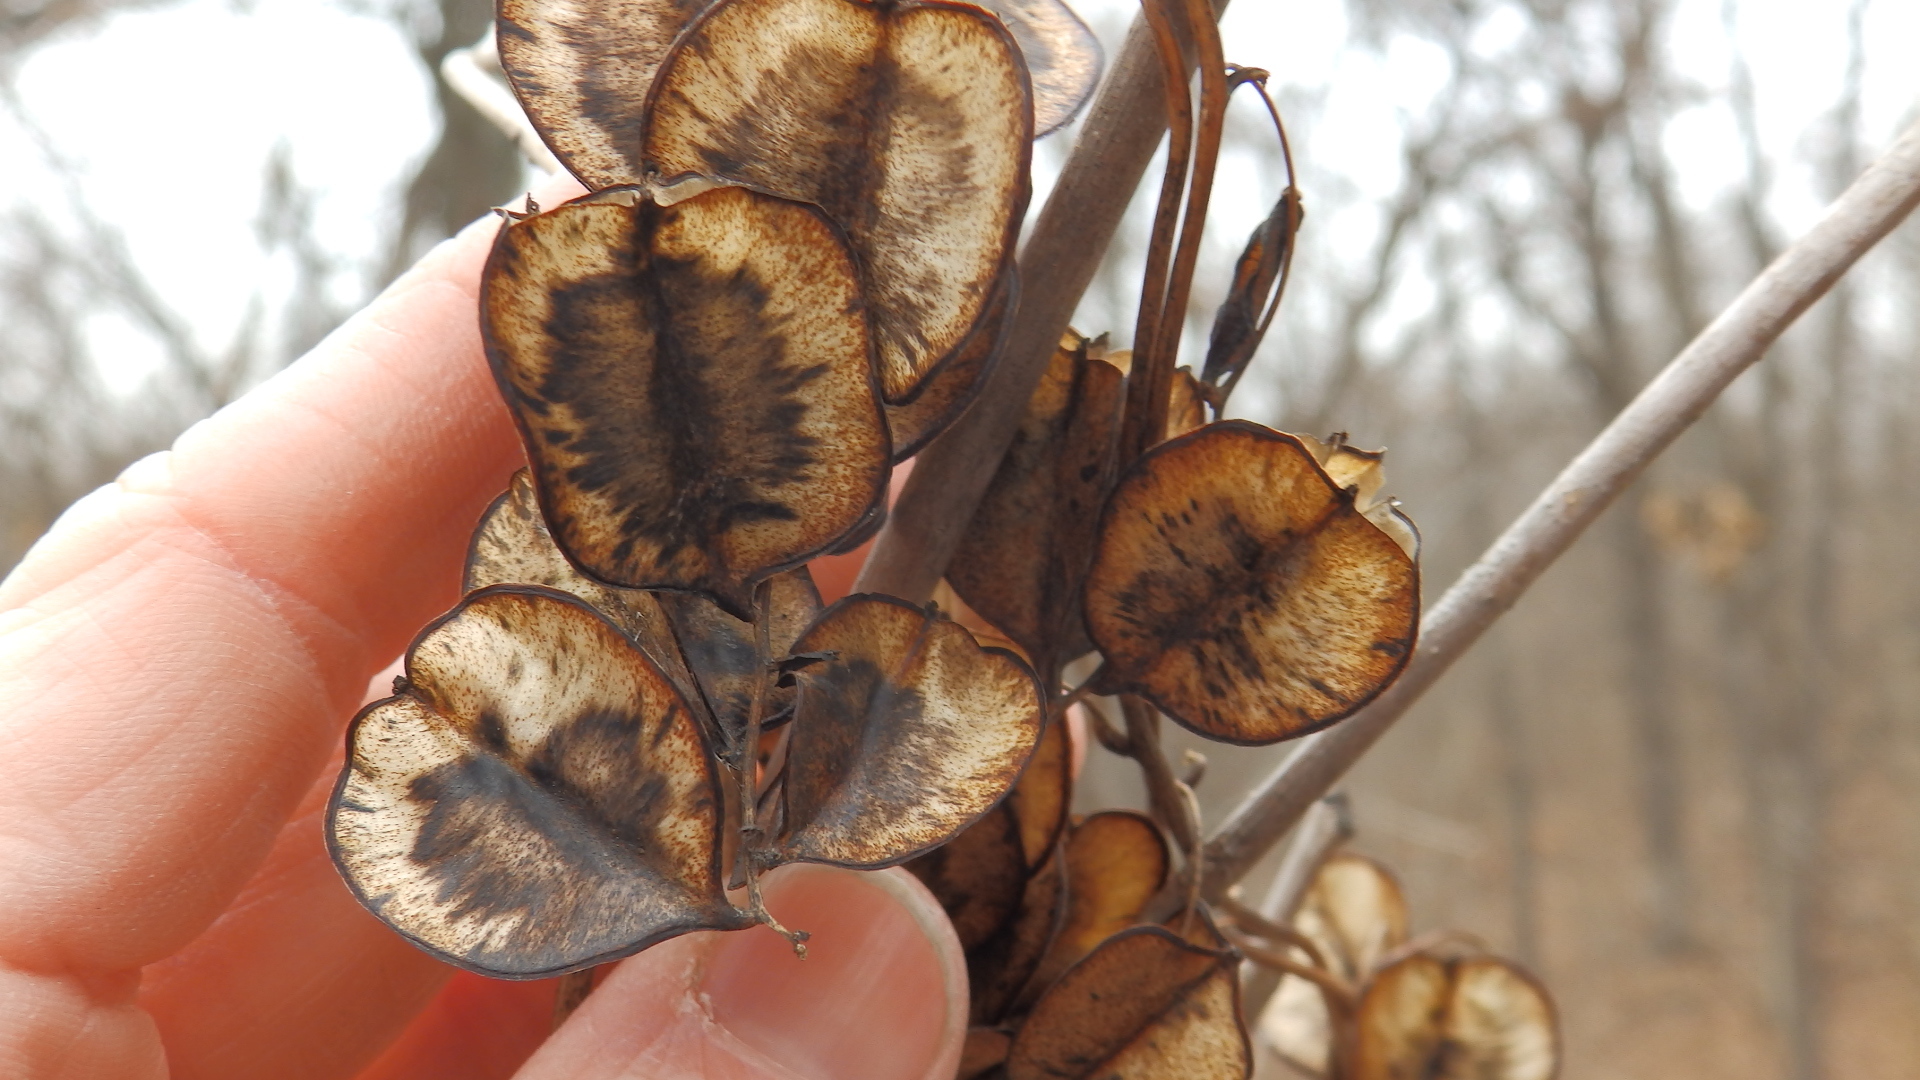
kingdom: Plantae
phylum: Tracheophyta
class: Liliopsida
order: Dioscoreales
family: Dioscoreaceae
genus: Dioscorea
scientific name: Dioscorea villosa
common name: Wild yam
